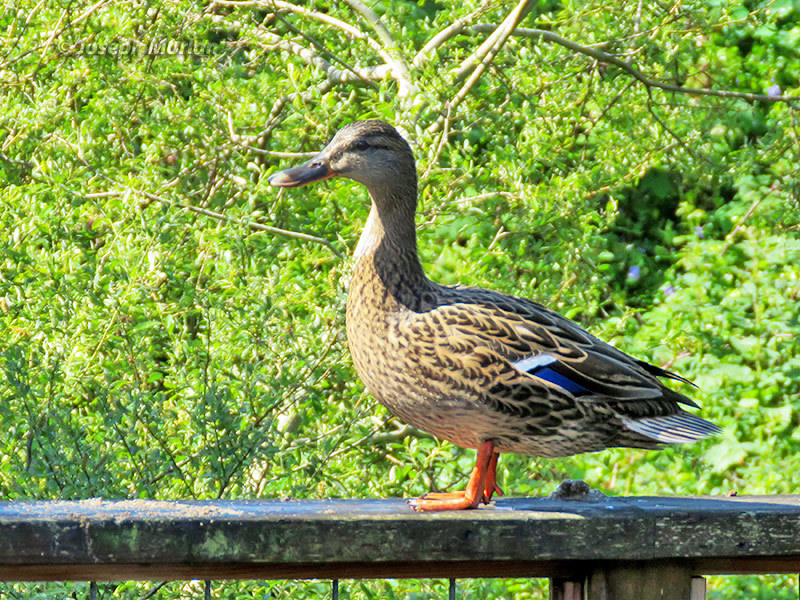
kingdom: Animalia
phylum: Chordata
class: Aves
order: Anseriformes
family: Anatidae
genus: Anas
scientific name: Anas platyrhynchos
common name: Mallard
